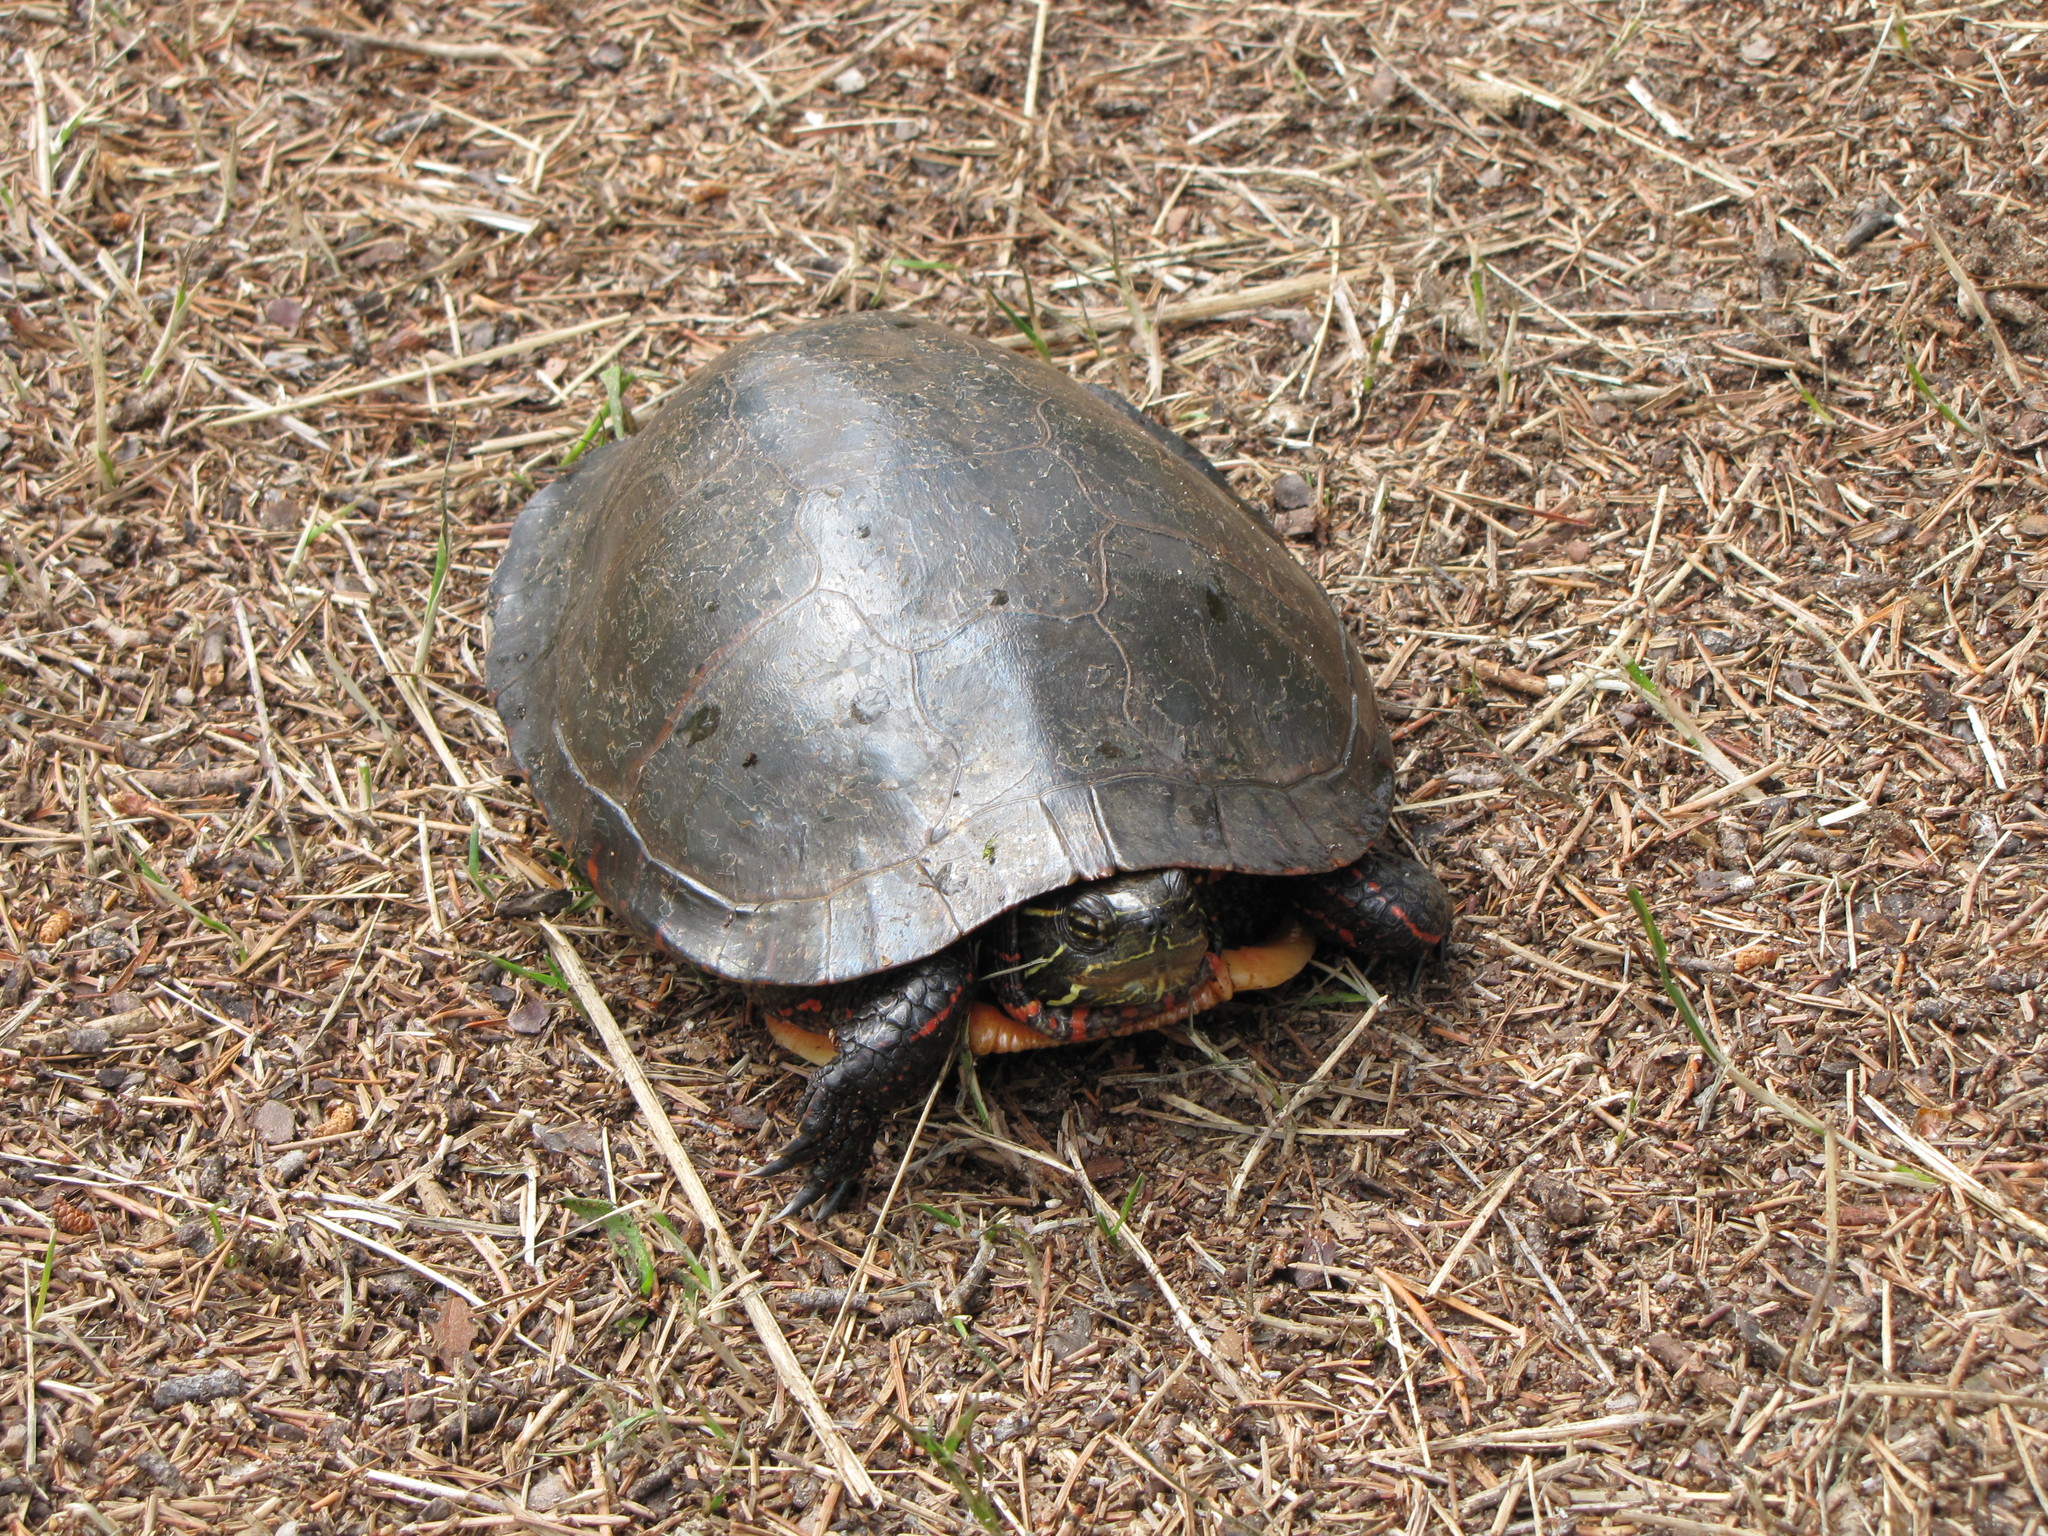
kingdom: Animalia
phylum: Chordata
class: Testudines
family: Emydidae
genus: Chrysemys
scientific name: Chrysemys picta
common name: Painted turtle
